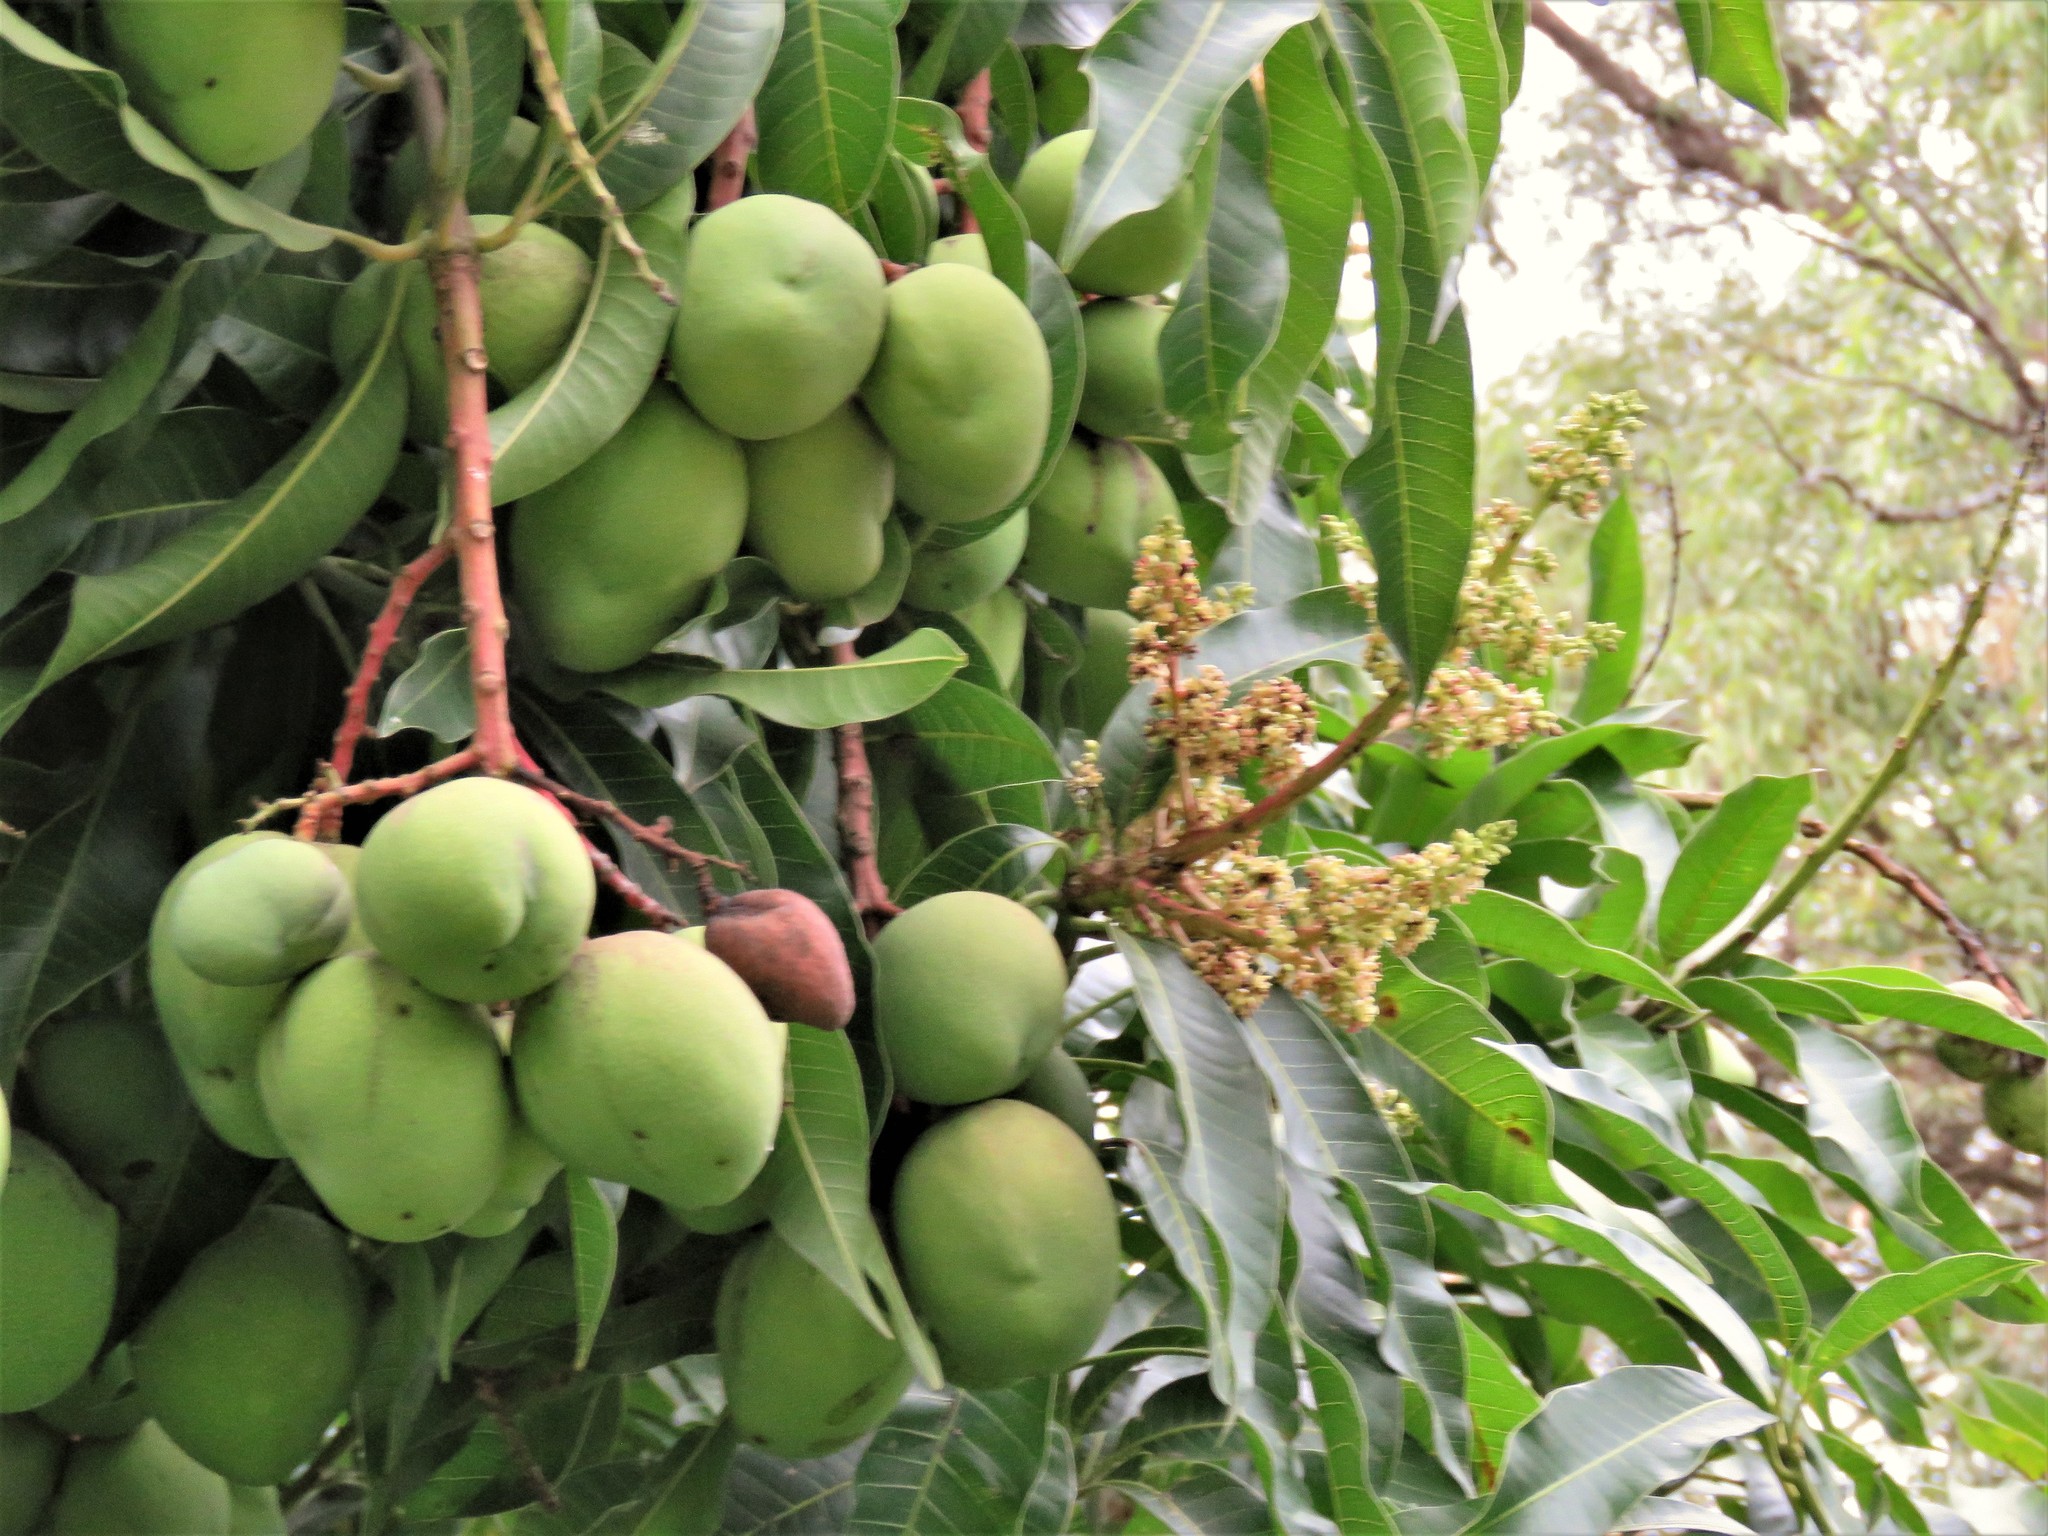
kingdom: Plantae
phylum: Tracheophyta
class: Magnoliopsida
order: Sapindales
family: Anacardiaceae
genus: Mangifera
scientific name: Mangifera indica
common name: Mango
